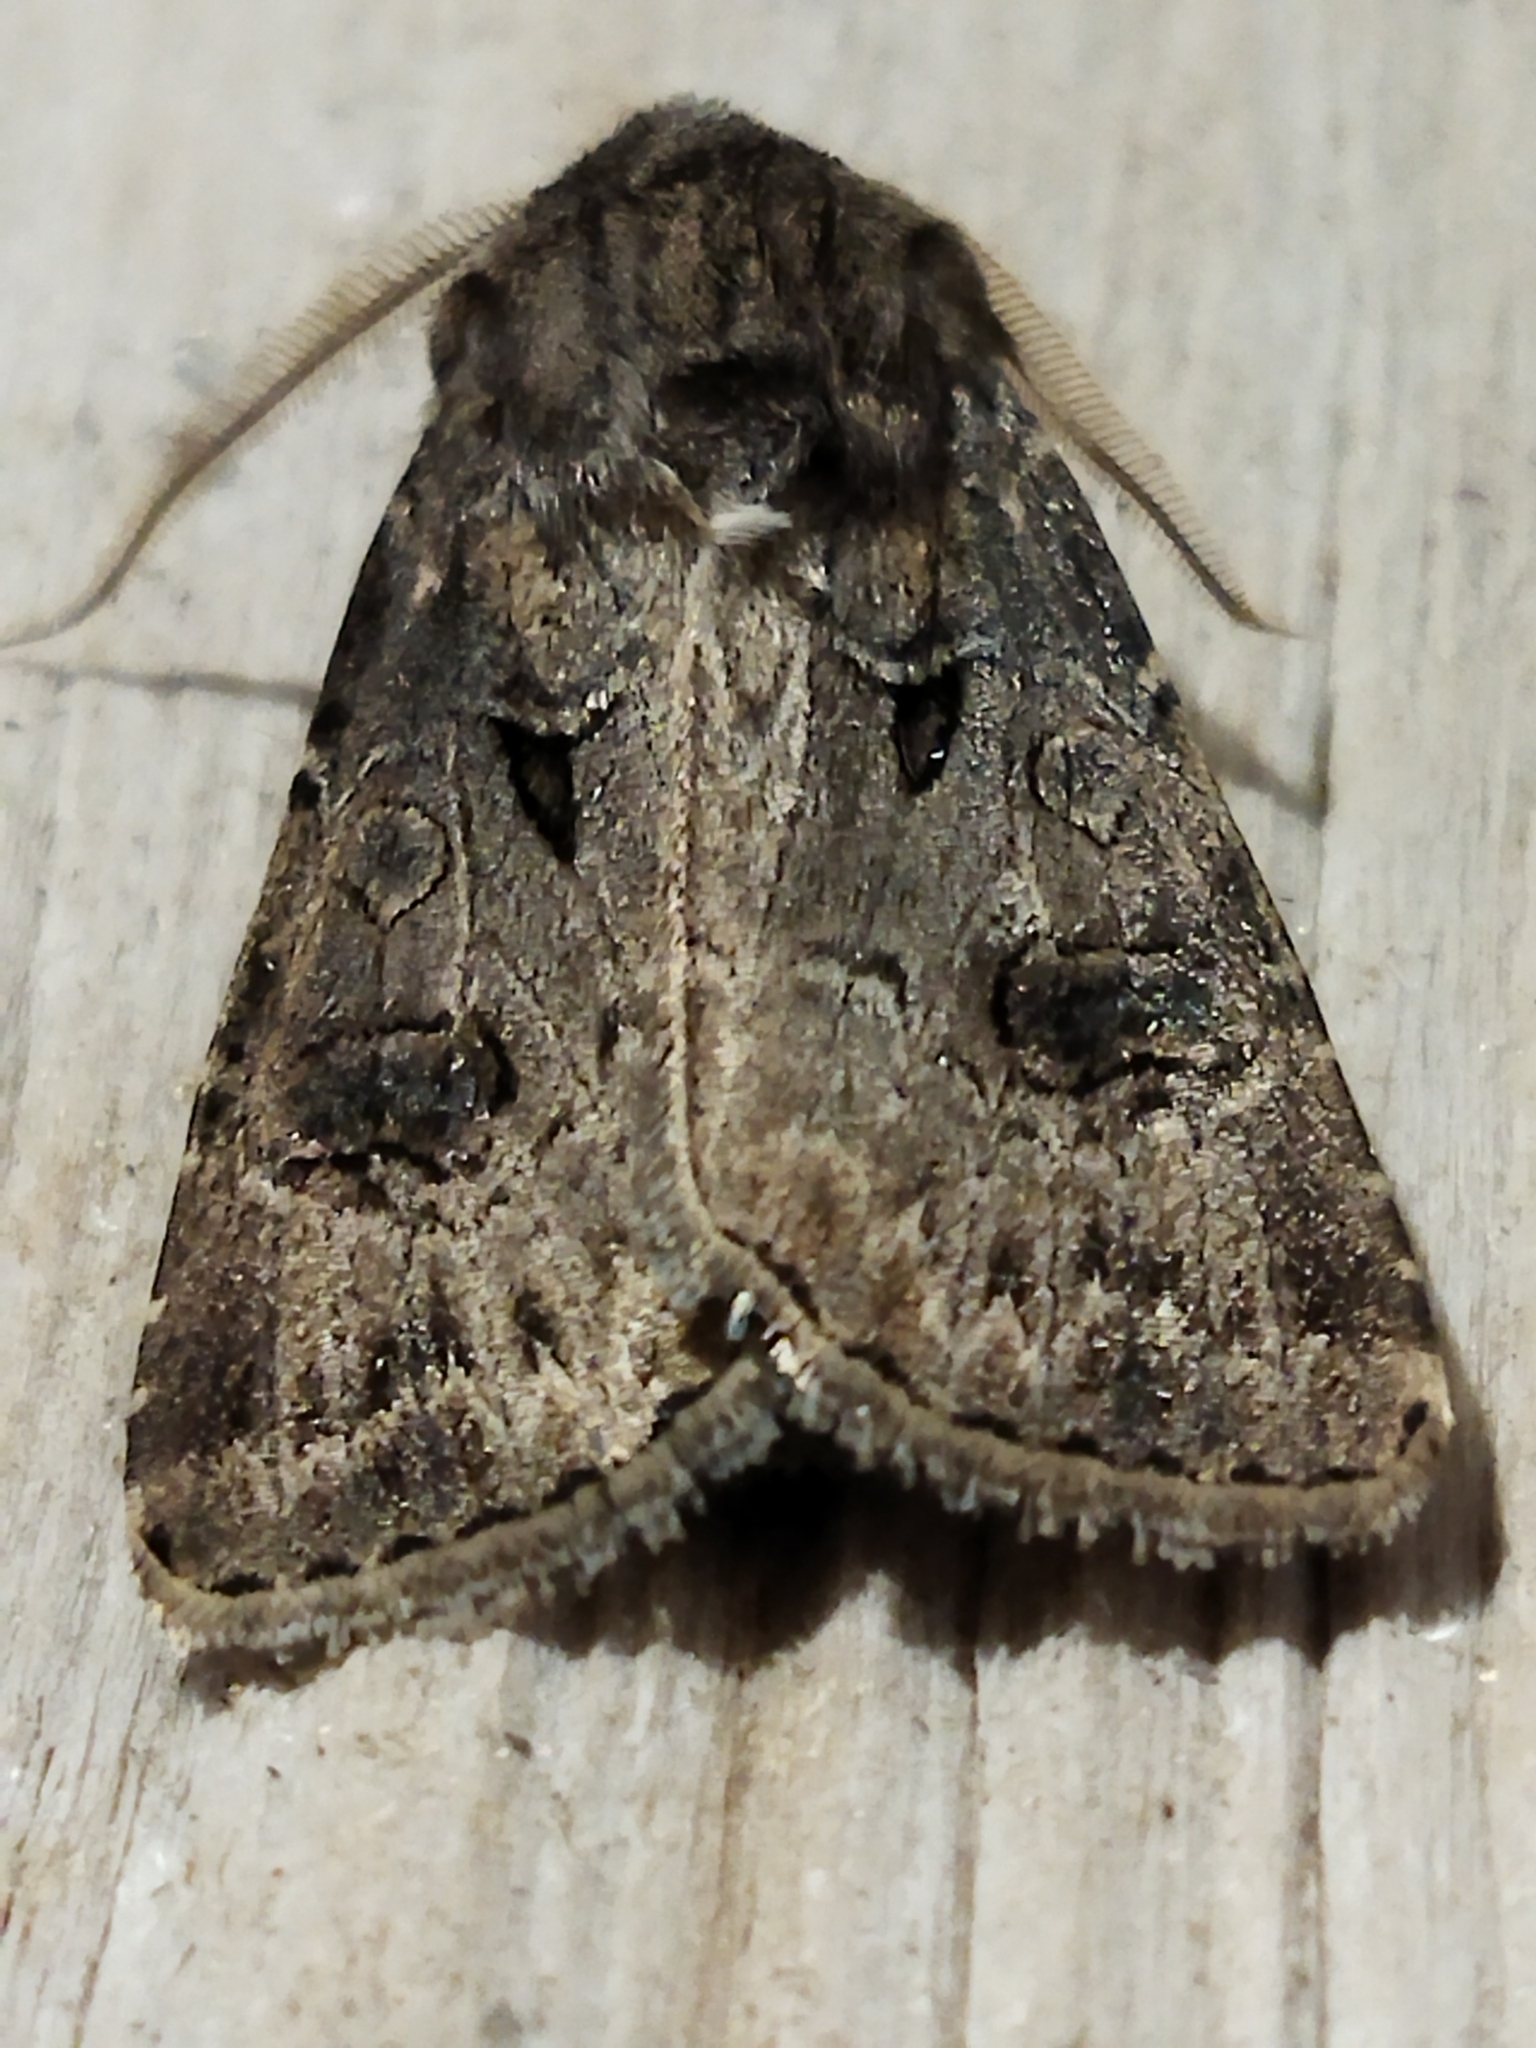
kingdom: Animalia
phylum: Arthropoda
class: Insecta
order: Lepidoptera
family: Noctuidae
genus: Agrotis
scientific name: Agrotis bigramma
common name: Great dart
